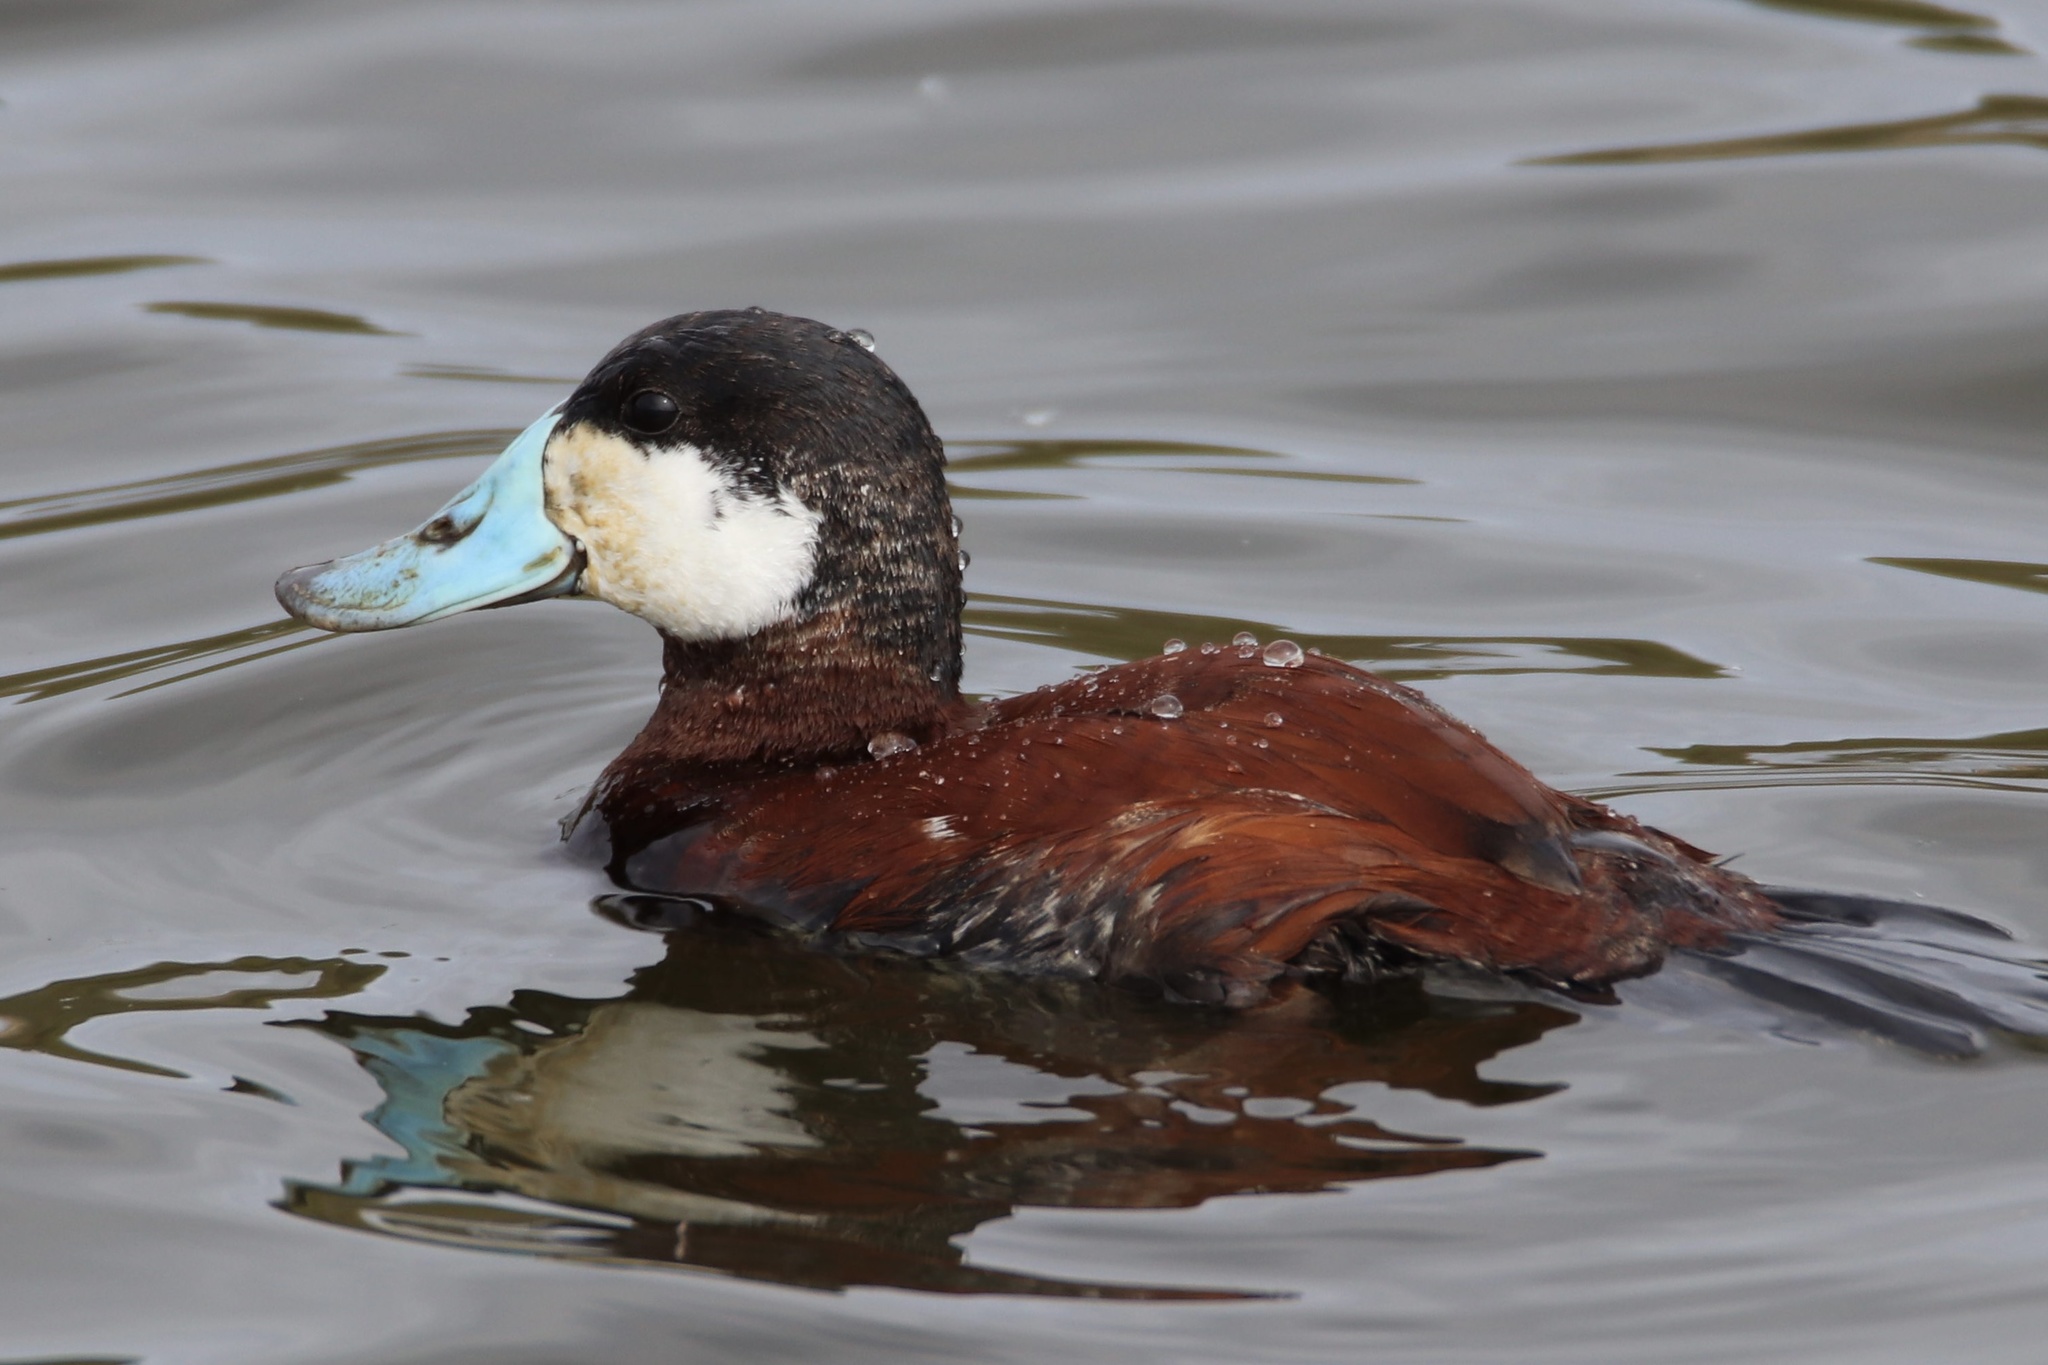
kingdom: Animalia
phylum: Chordata
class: Aves
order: Anseriformes
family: Anatidae
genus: Oxyura
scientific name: Oxyura jamaicensis
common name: Ruddy duck
